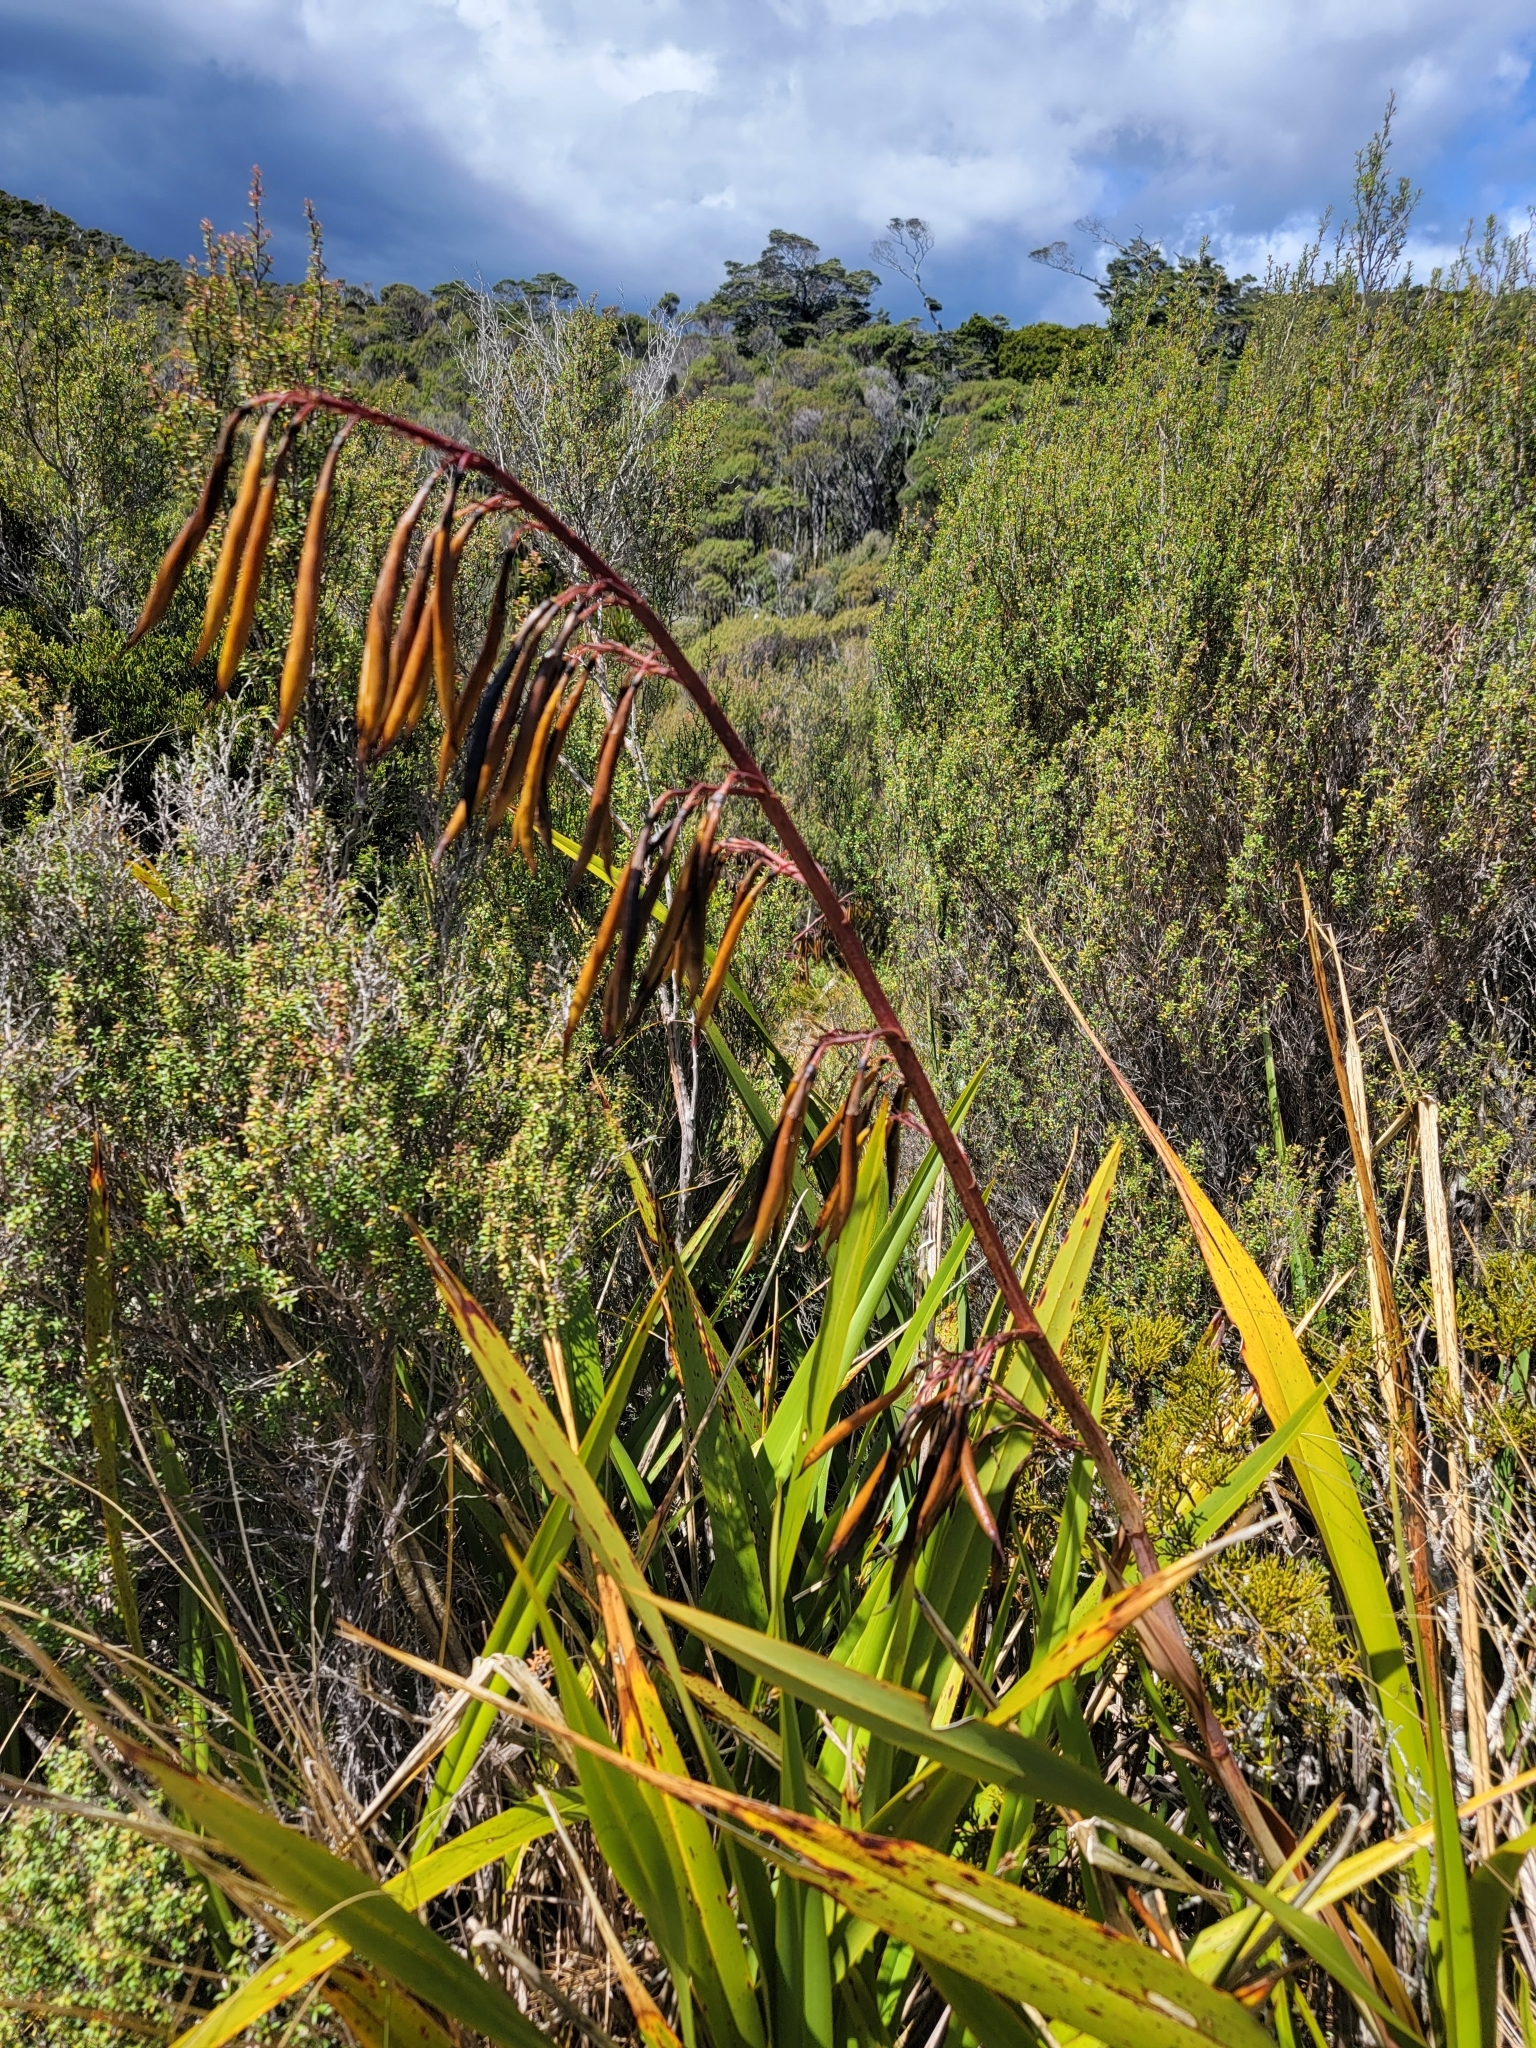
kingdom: Plantae
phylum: Tracheophyta
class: Liliopsida
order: Asparagales
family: Asphodelaceae
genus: Phormium
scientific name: Phormium colensoi
